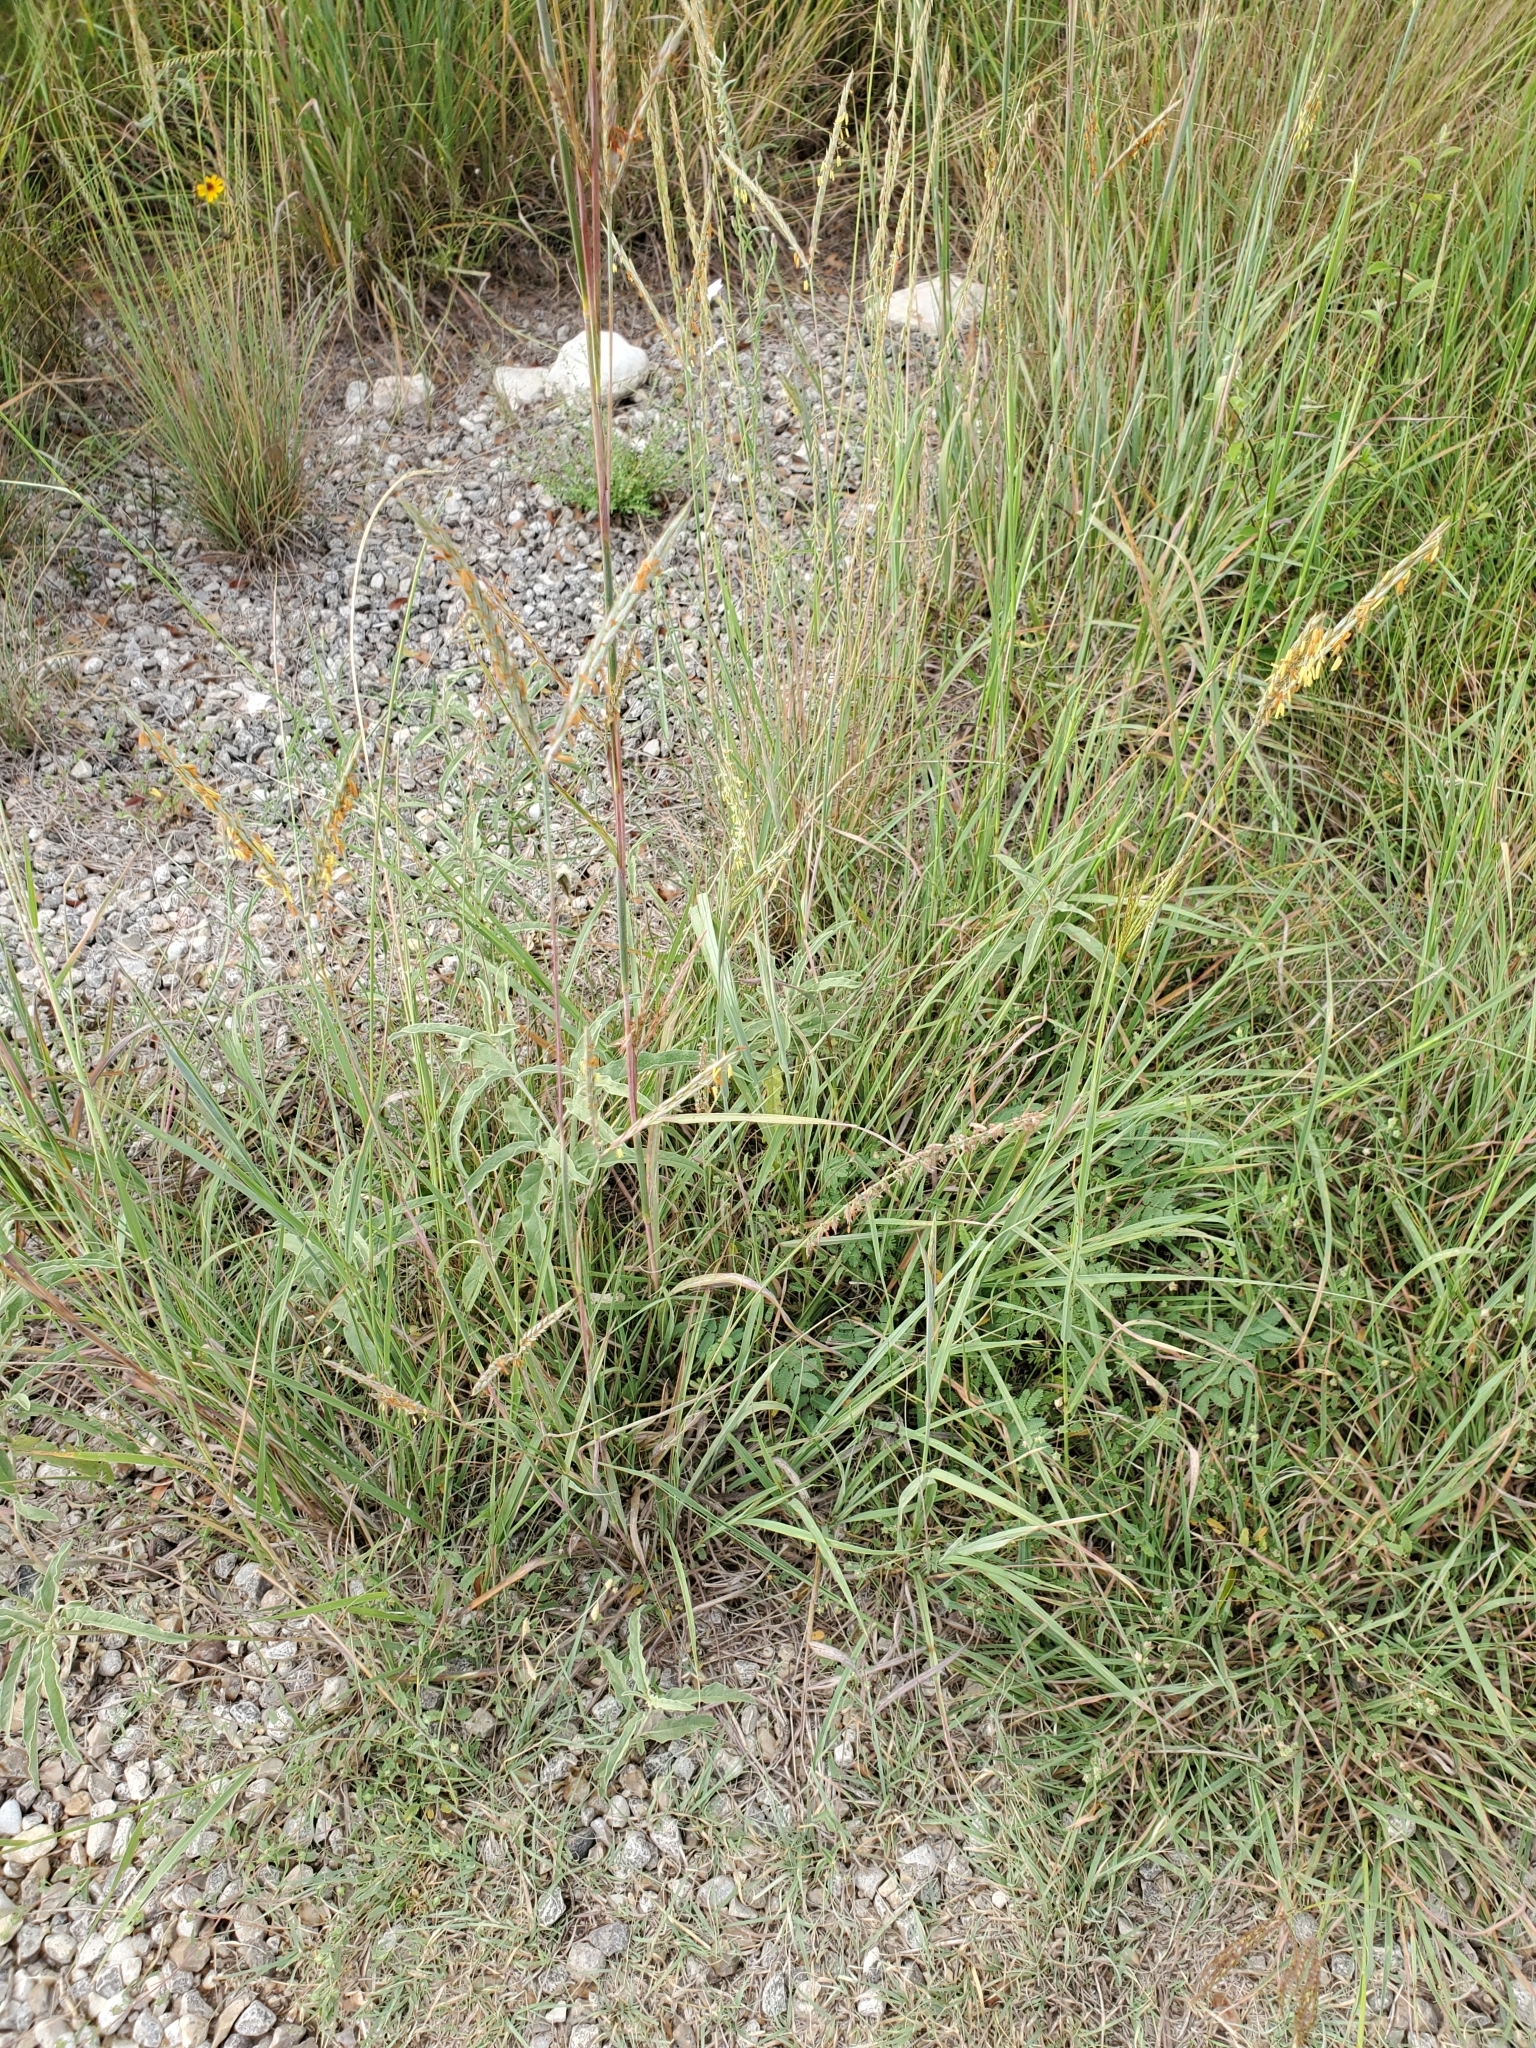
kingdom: Plantae
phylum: Tracheophyta
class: Liliopsida
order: Poales
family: Poaceae
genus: Andropogon
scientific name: Andropogon gerardi
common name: Big bluestem
